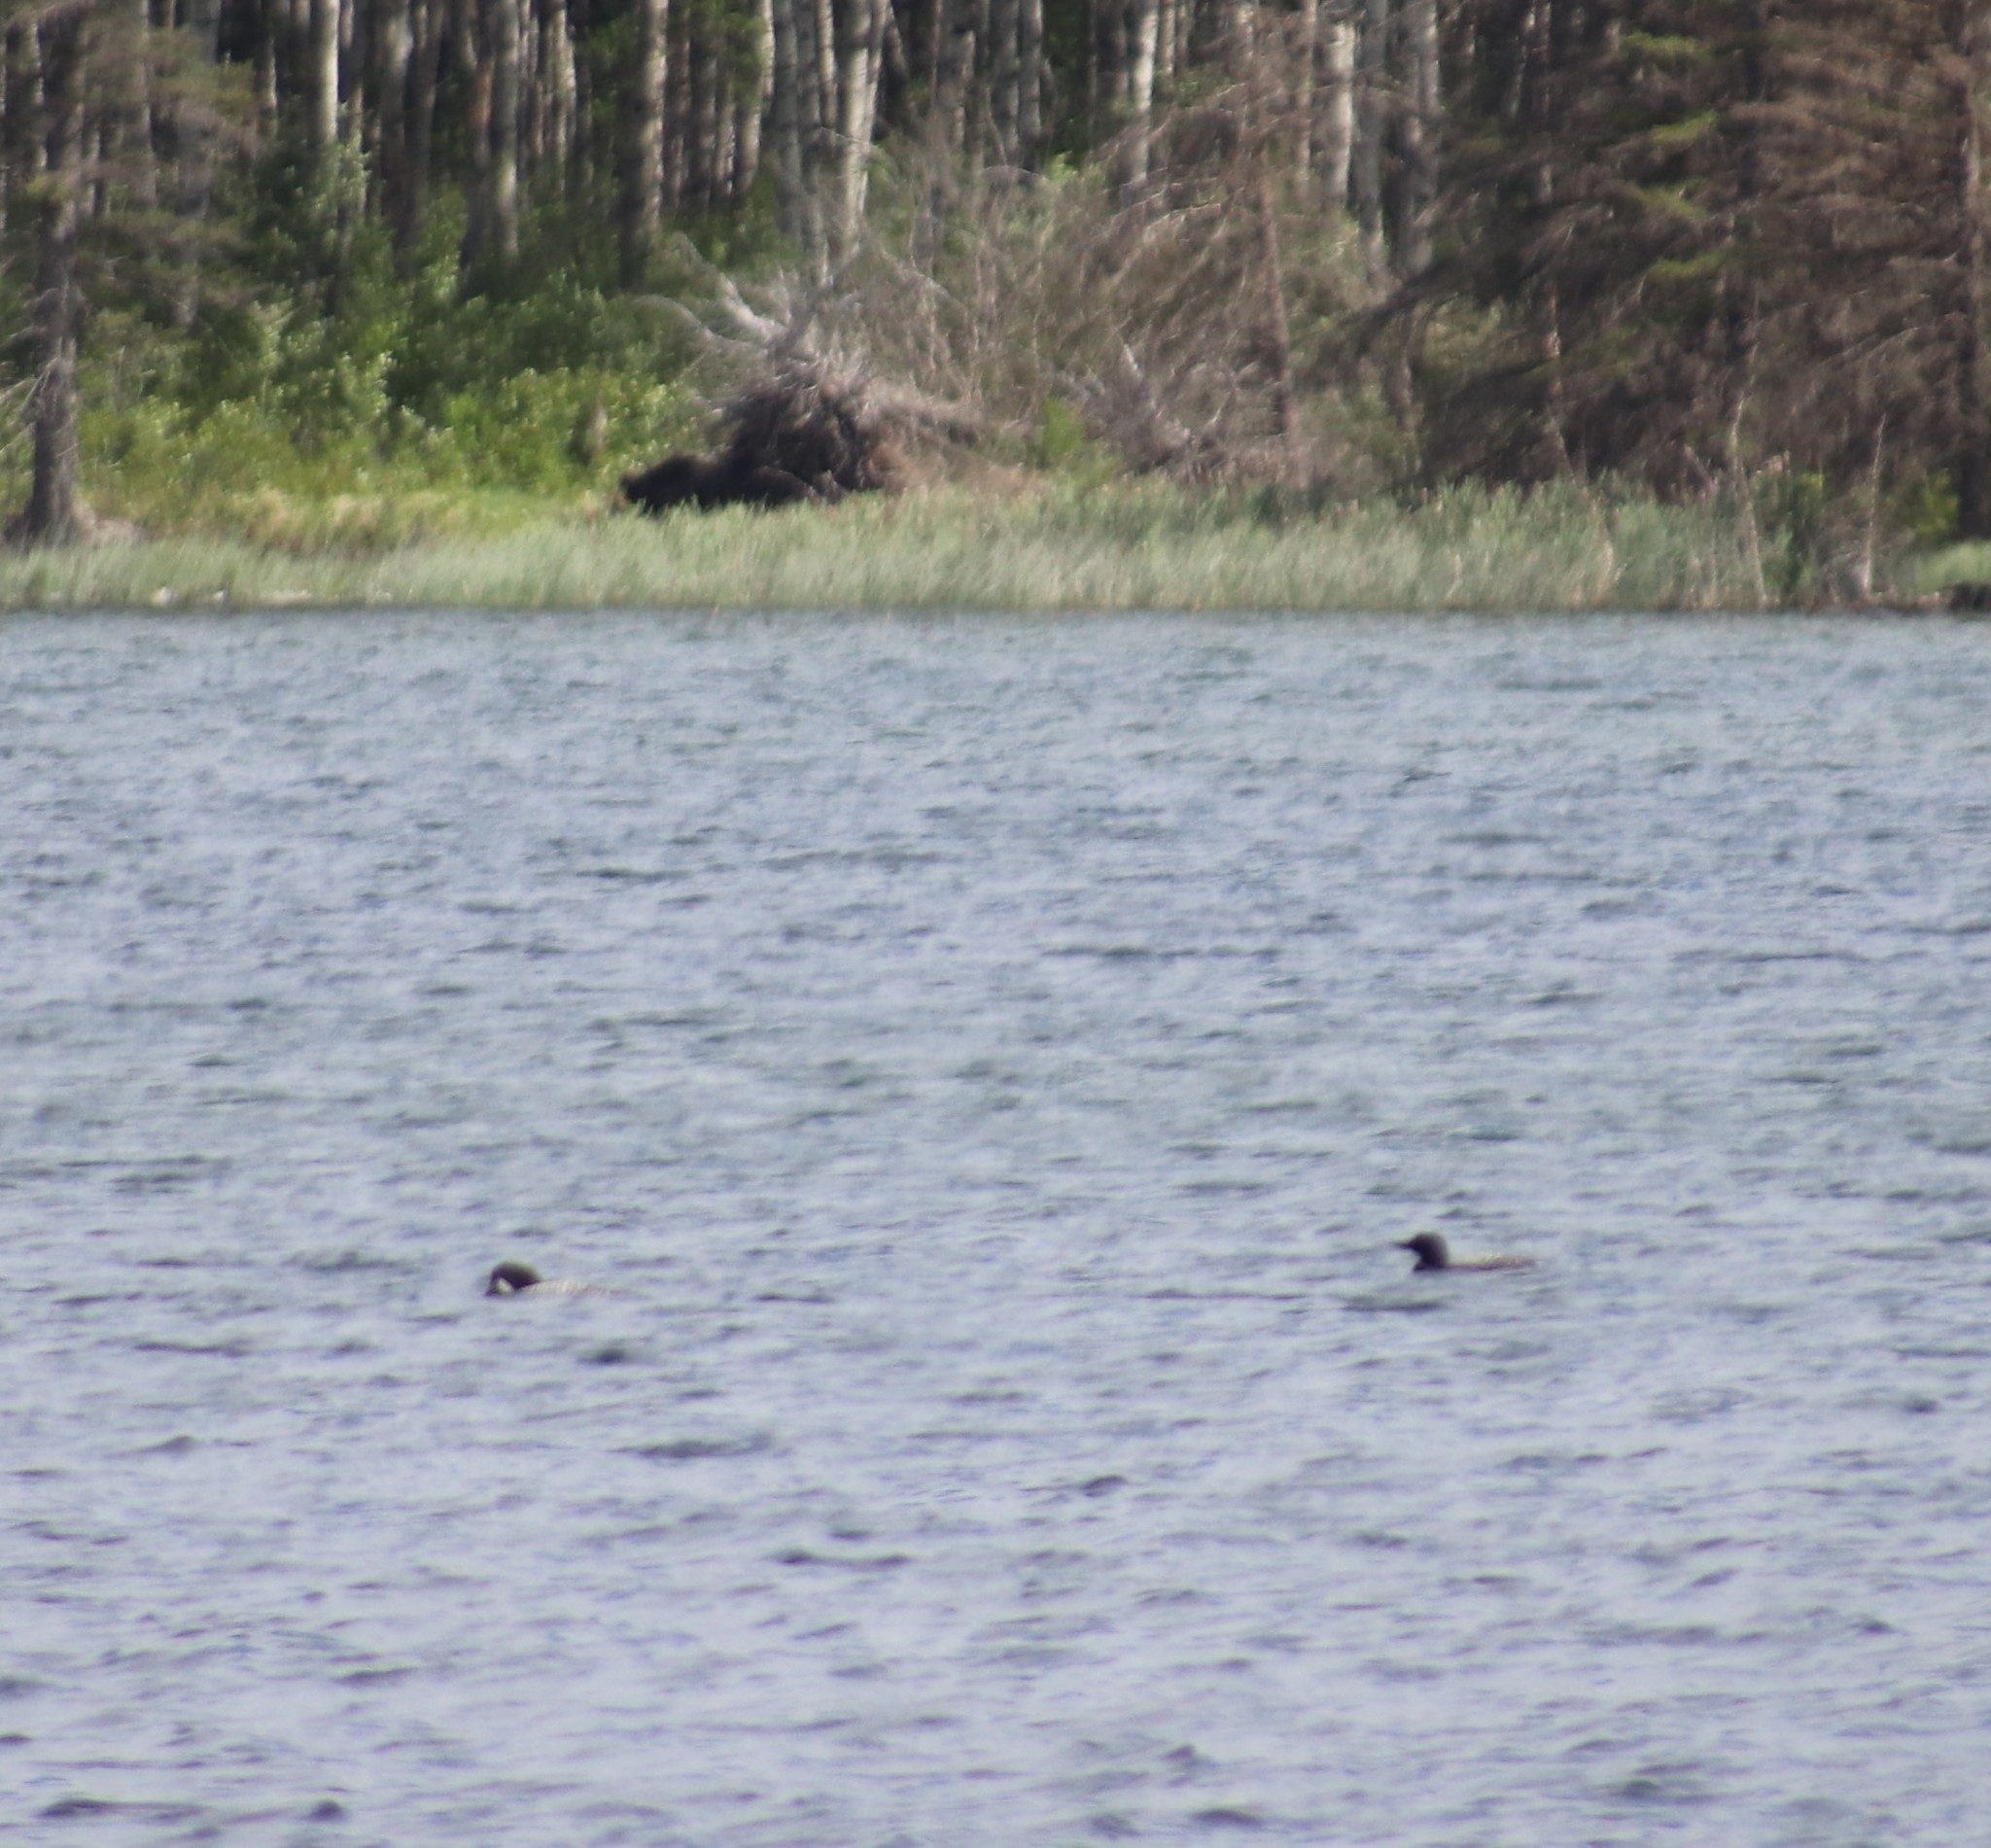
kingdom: Animalia
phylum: Chordata
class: Aves
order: Gaviiformes
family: Gaviidae
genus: Gavia
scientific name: Gavia immer
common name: Common loon
